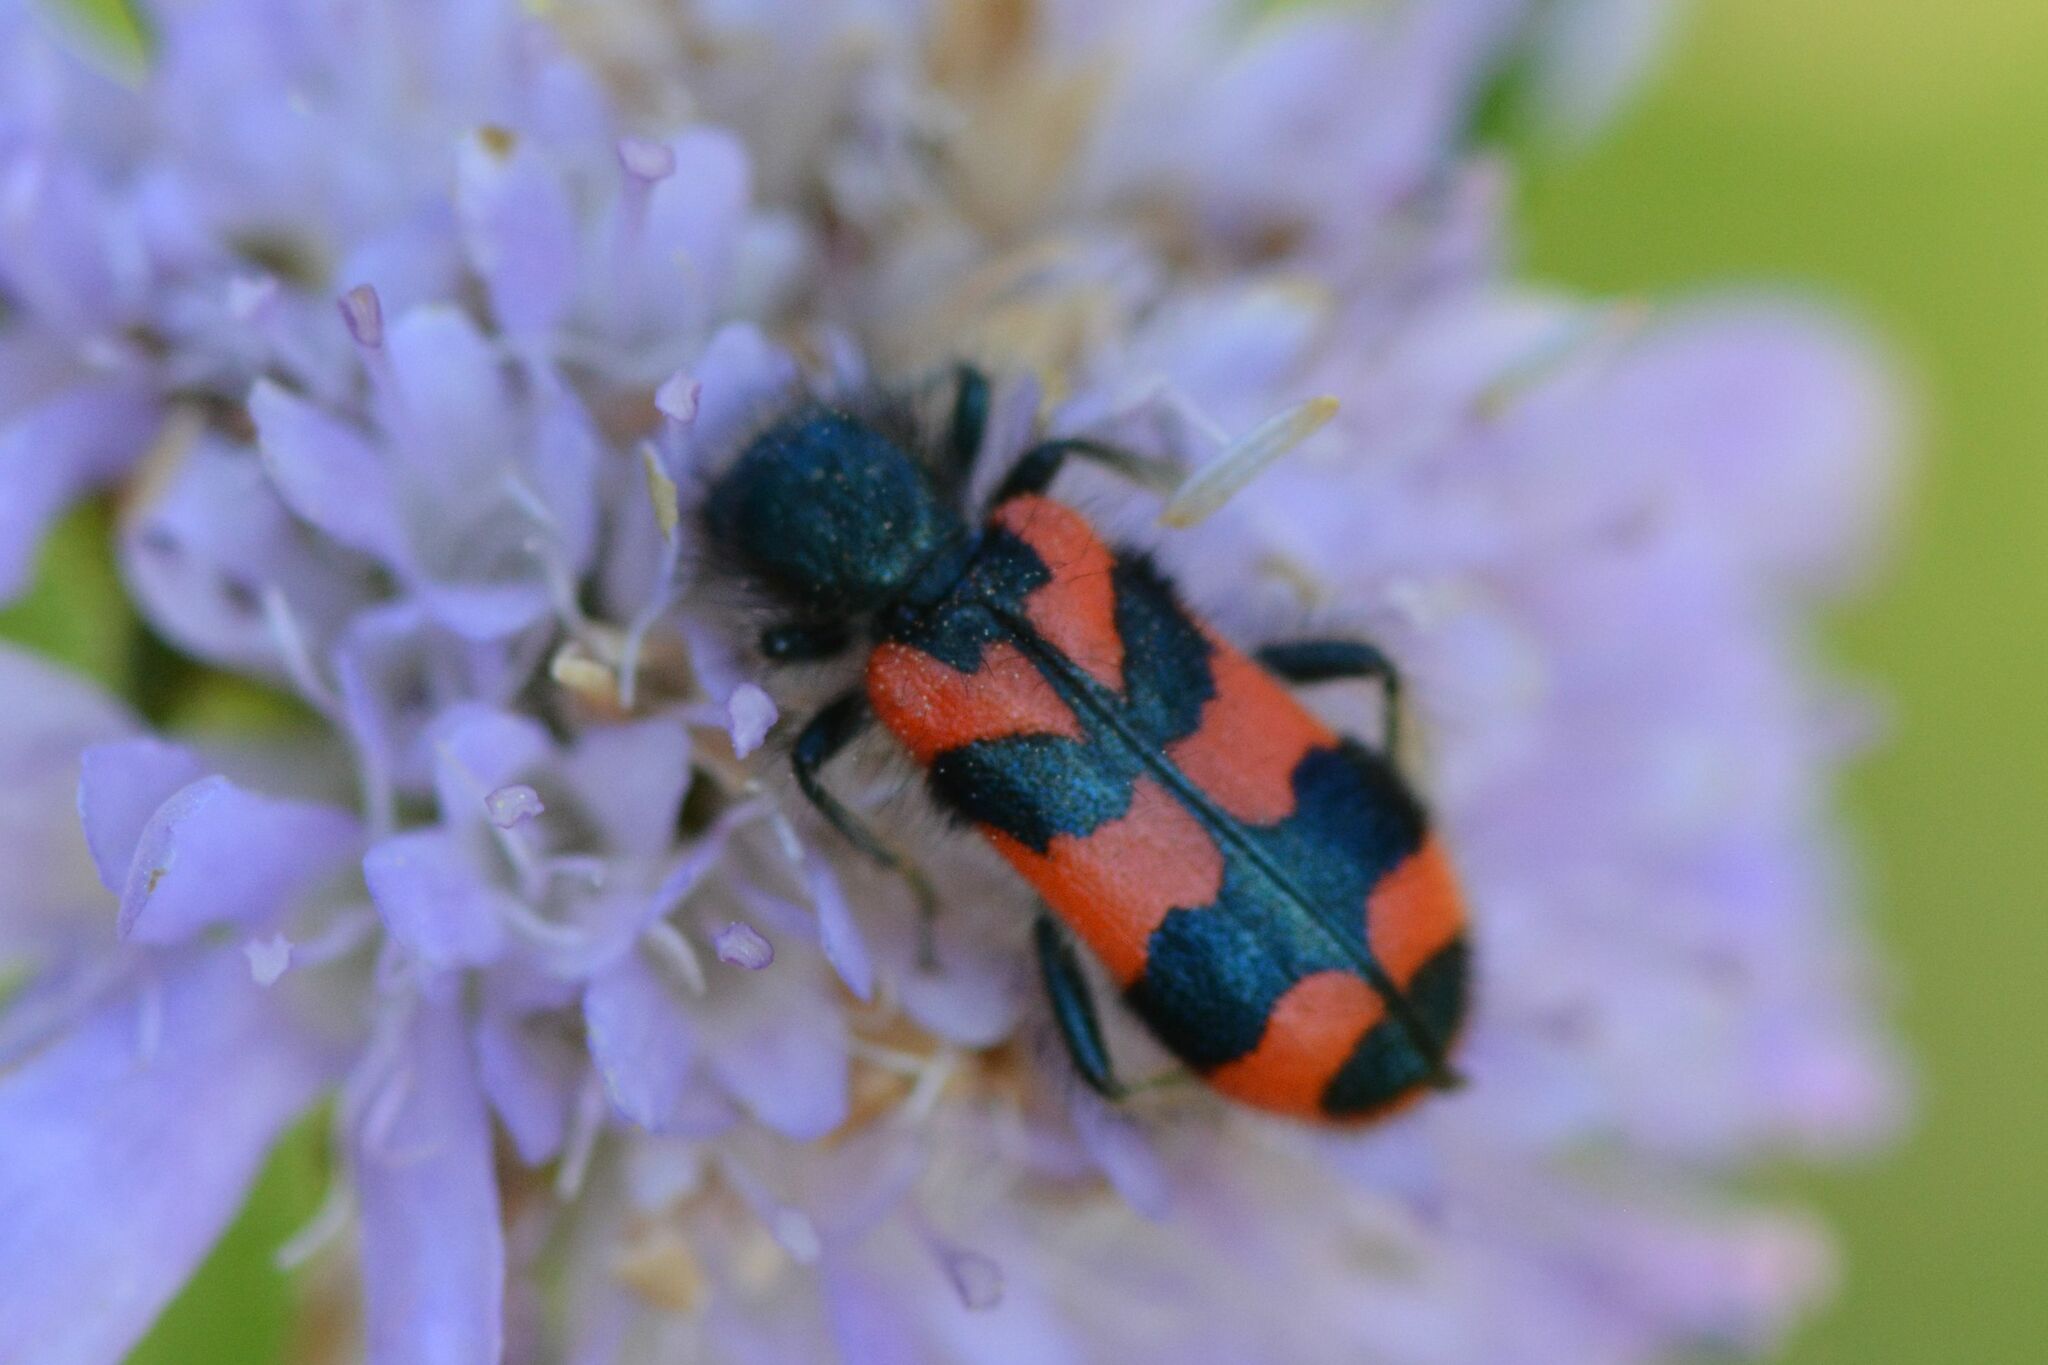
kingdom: Animalia
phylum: Arthropoda
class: Insecta
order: Coleoptera
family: Cleridae
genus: Trichodes
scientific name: Trichodes alvearius
